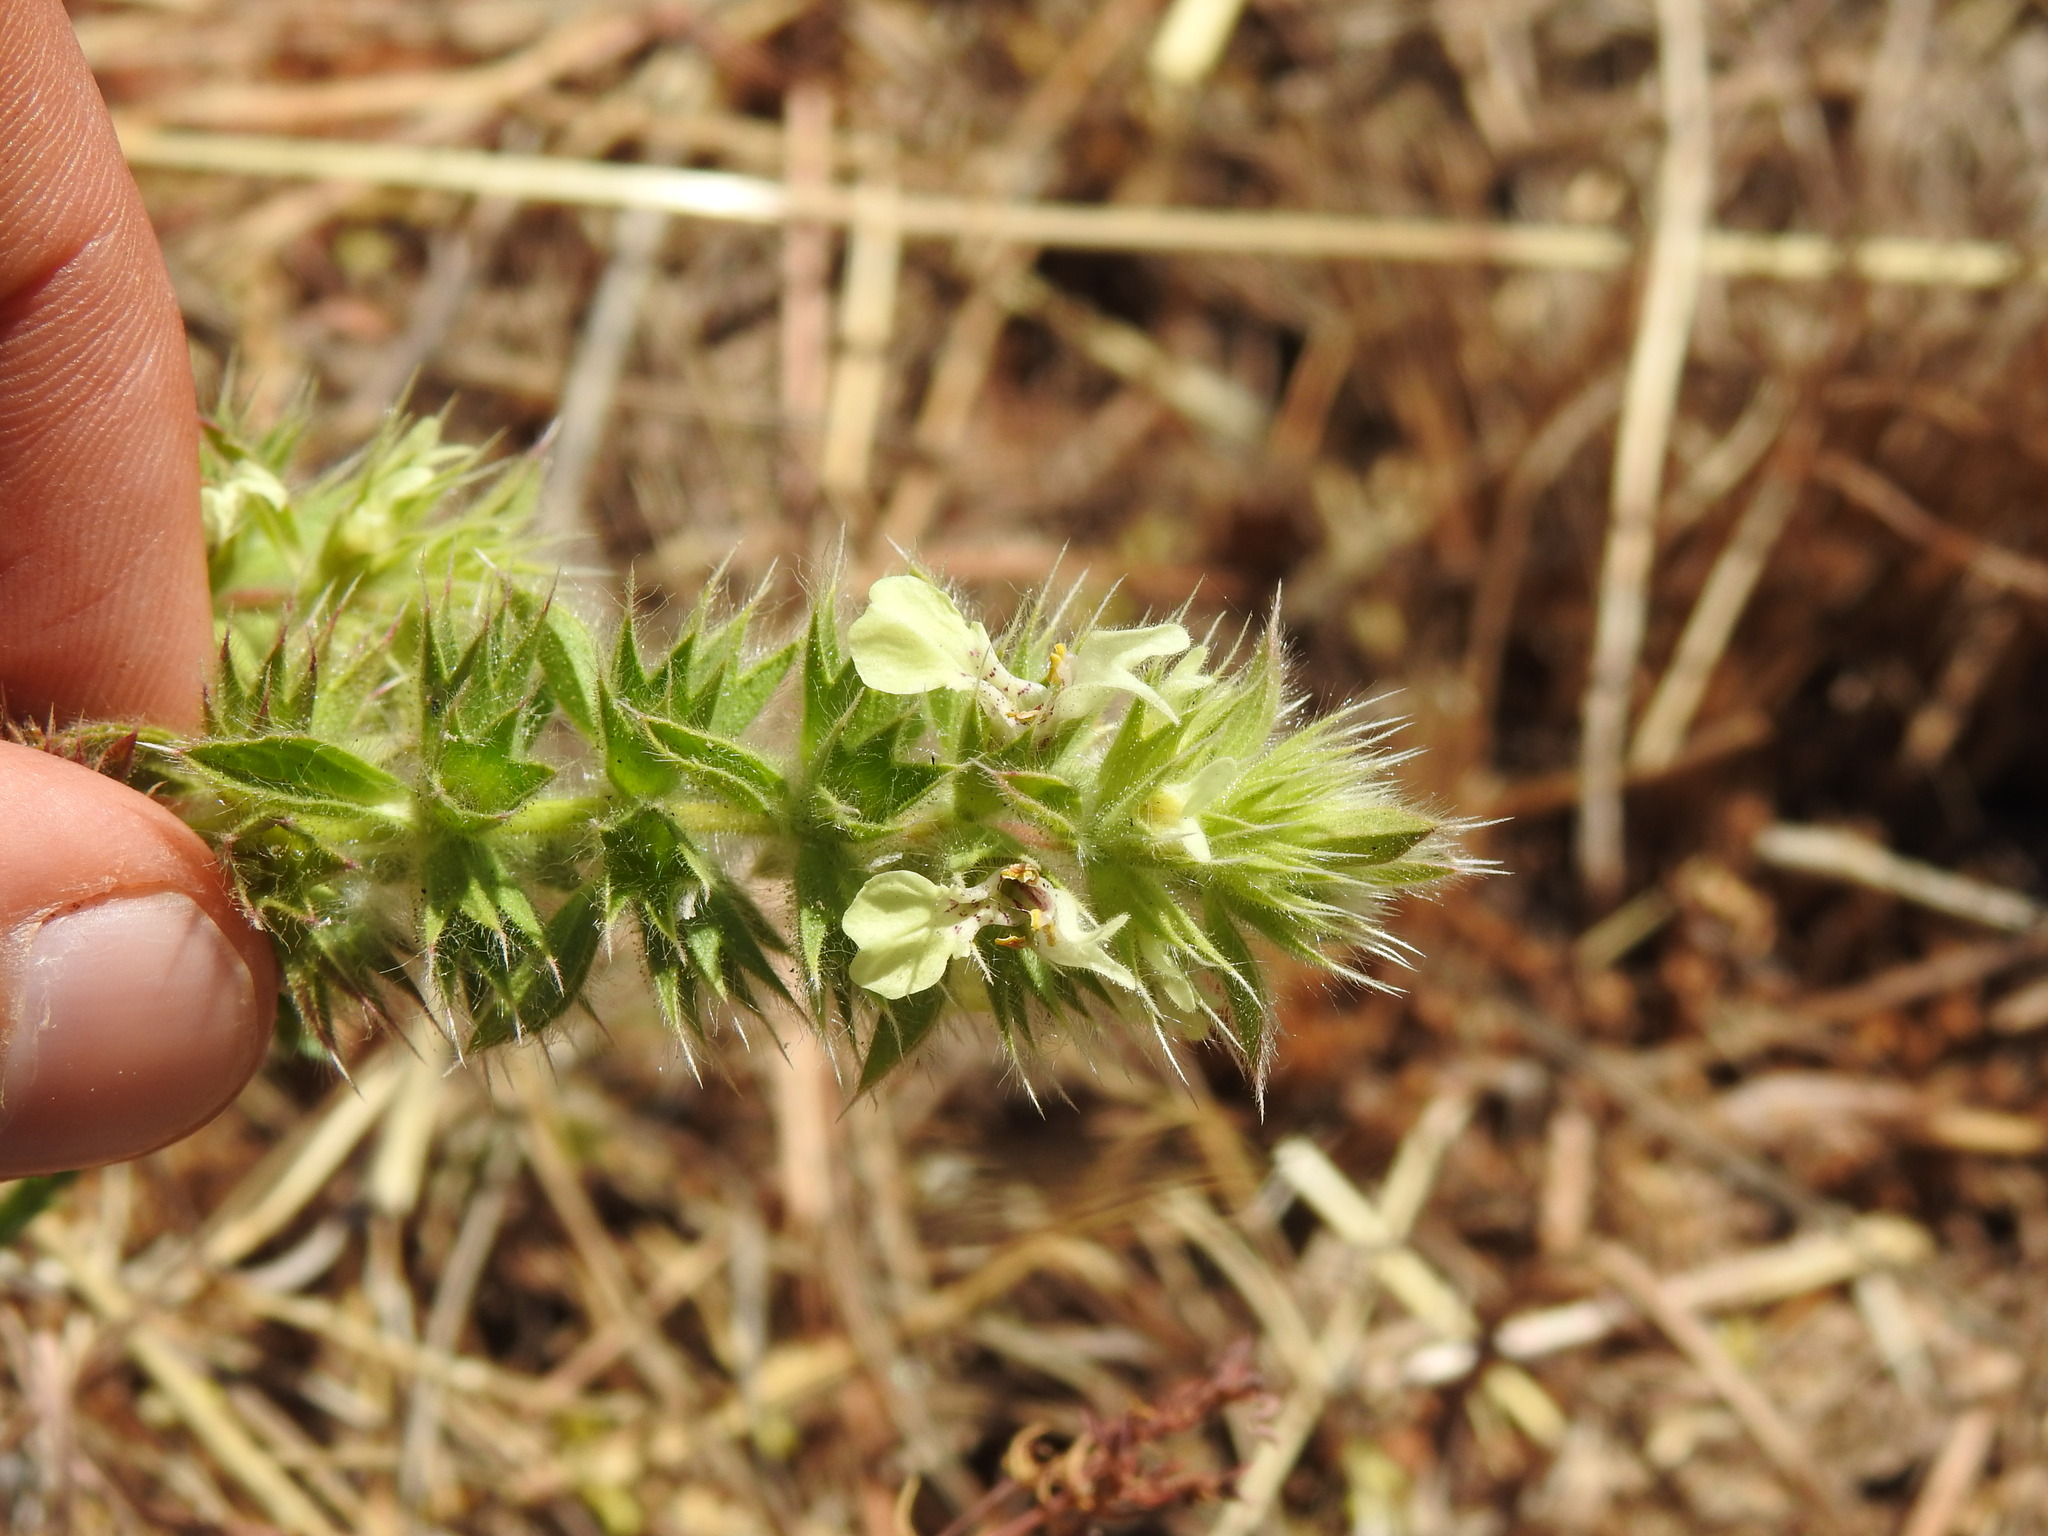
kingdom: Plantae
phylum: Tracheophyta
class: Magnoliopsida
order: Lamiales
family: Lamiaceae
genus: Stachys
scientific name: Stachys ocymastrum
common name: Italian hedgenettle
